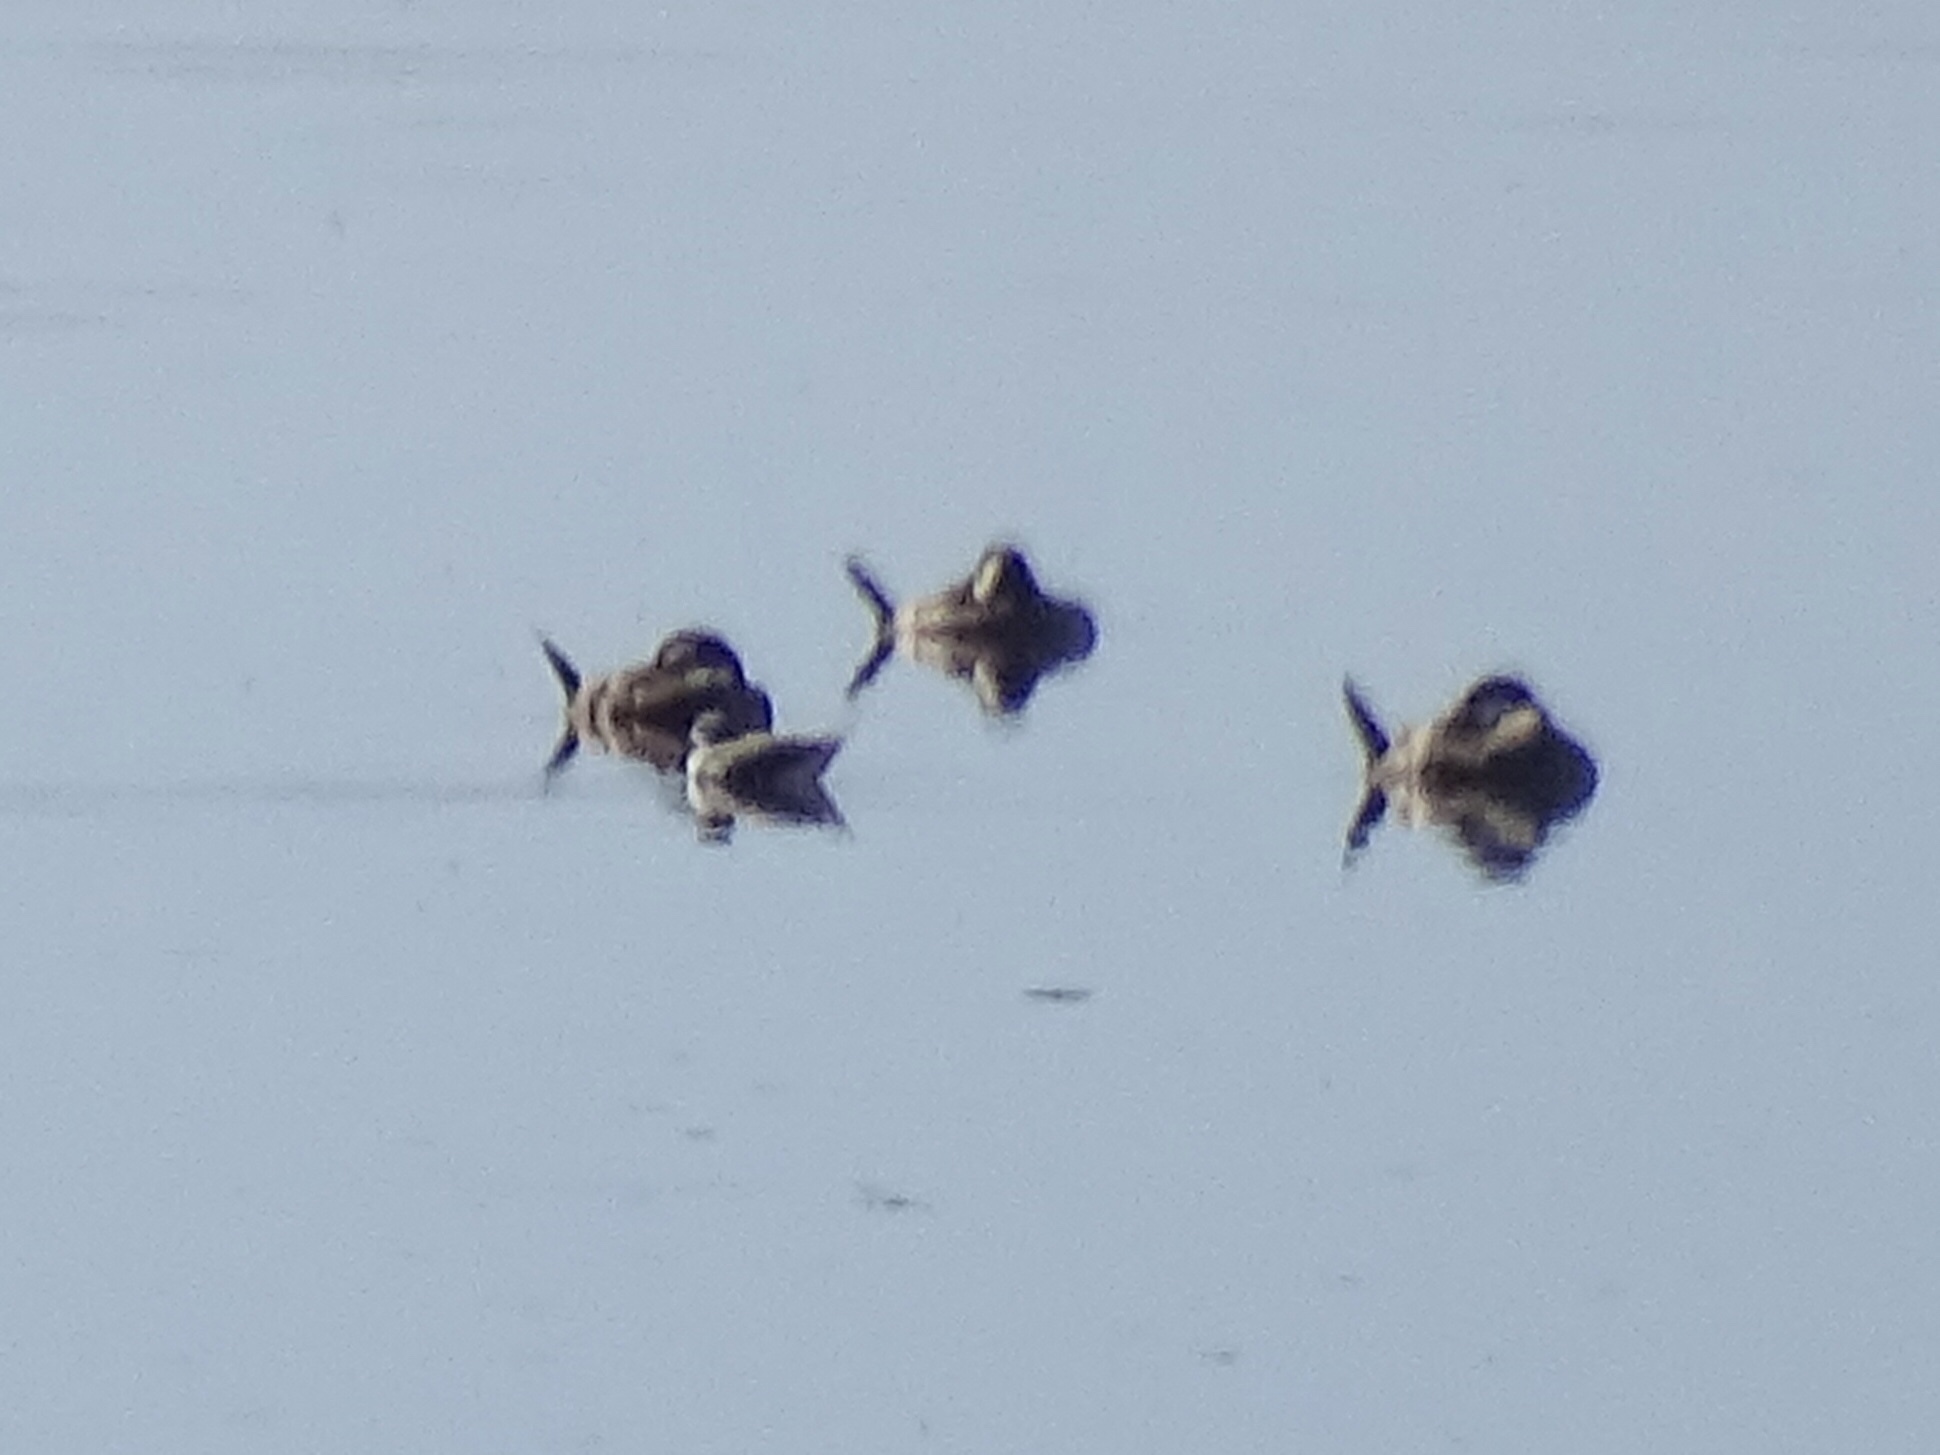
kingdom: Animalia
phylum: Chordata
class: Aves
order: Anseriformes
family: Anatidae
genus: Oxyura
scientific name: Oxyura jamaicensis
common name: Ruddy duck
